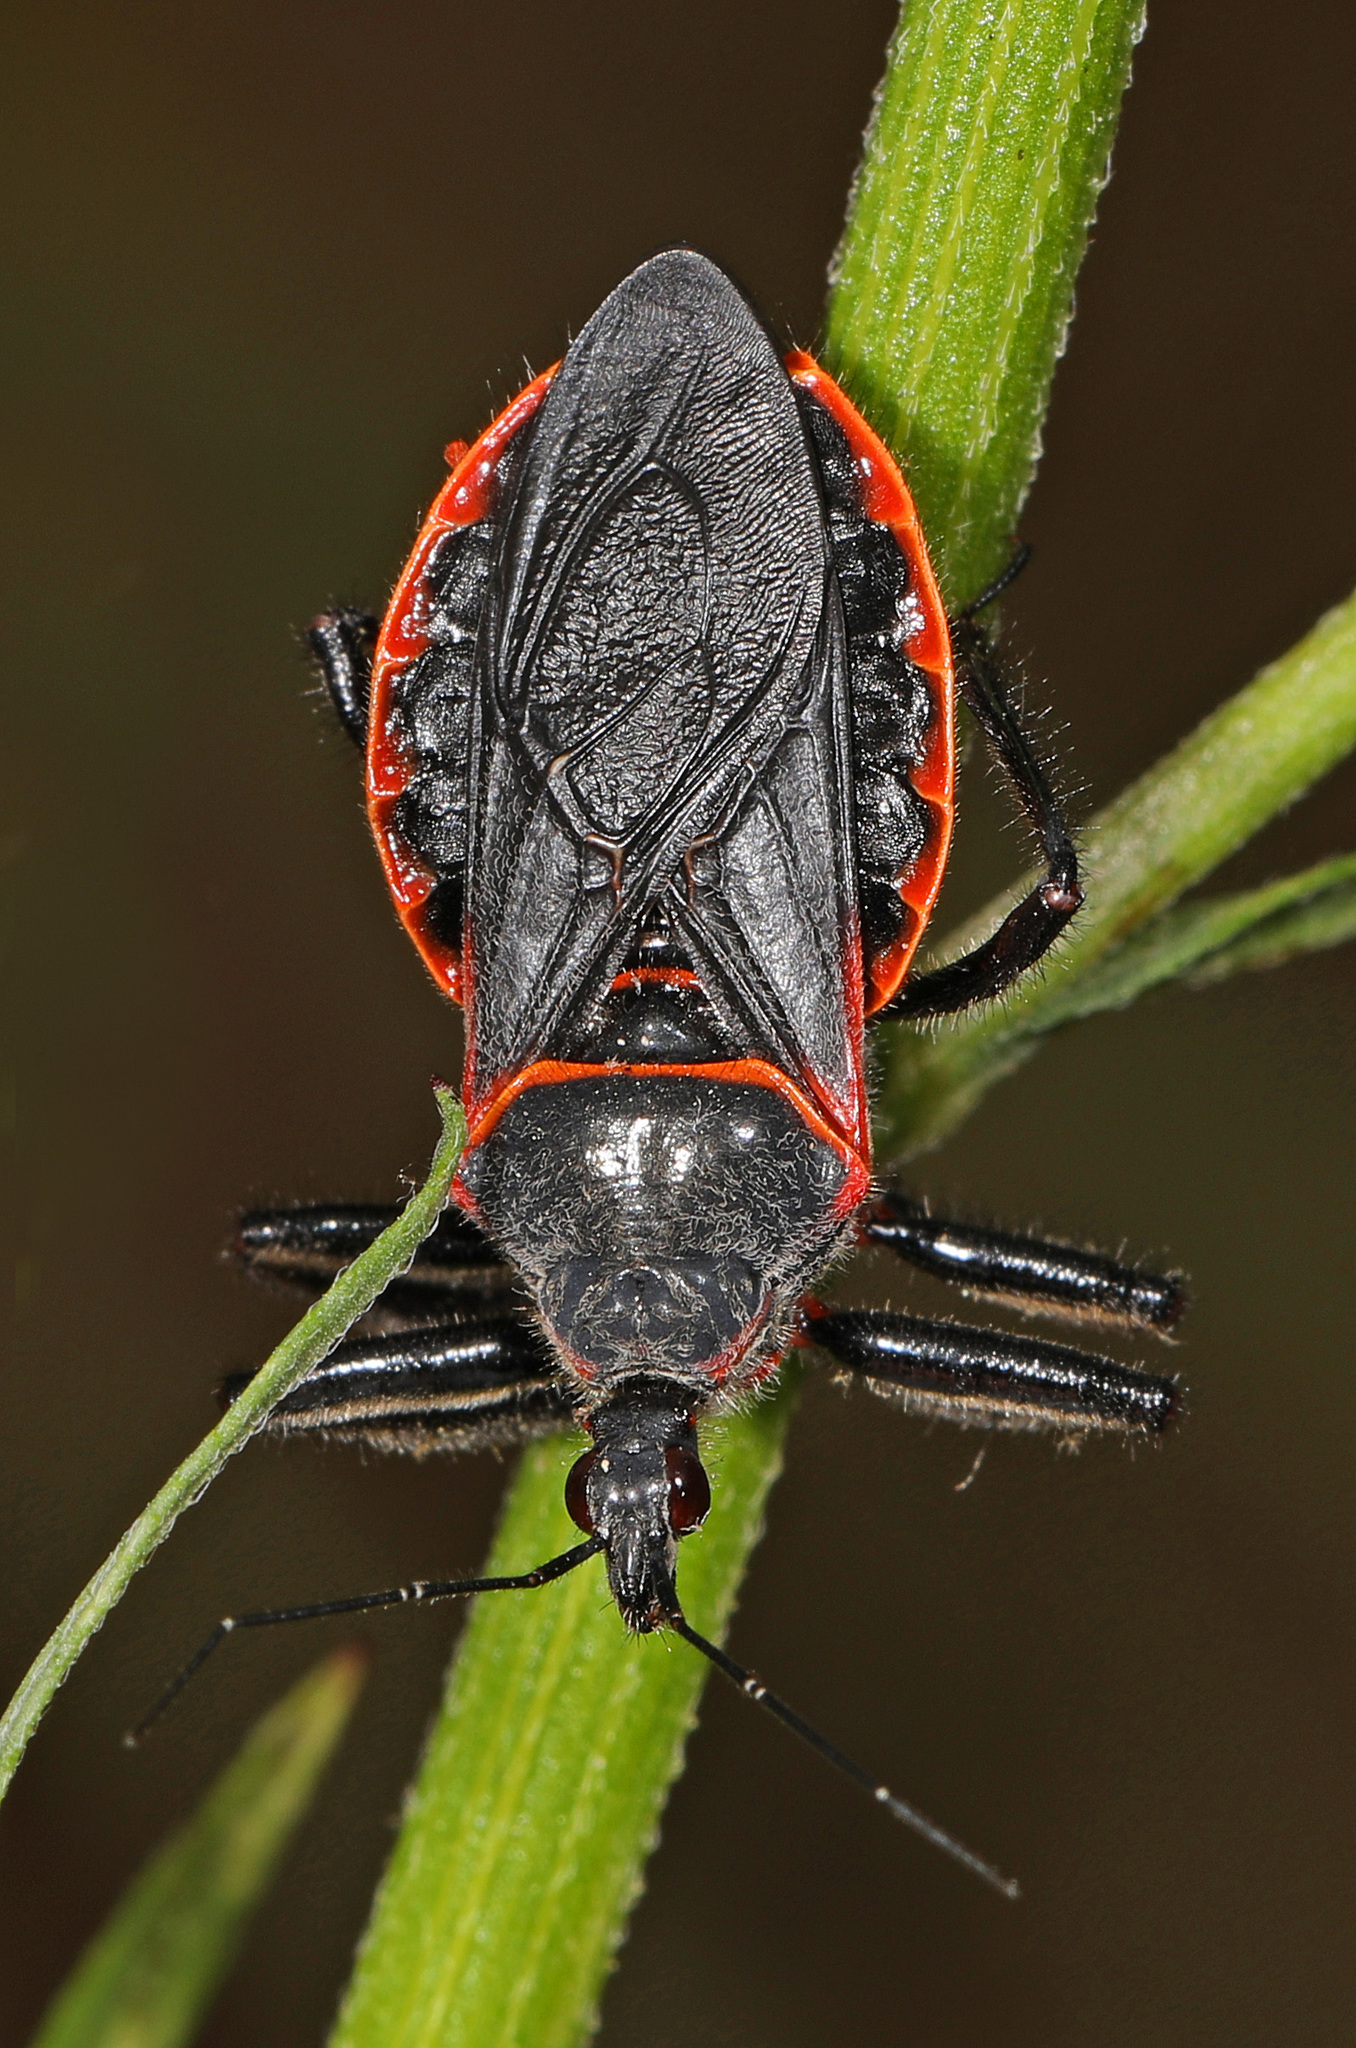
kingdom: Animalia
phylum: Arthropoda
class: Insecta
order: Hemiptera
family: Reduviidae
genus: Apiomerus
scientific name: Apiomerus crassipes
